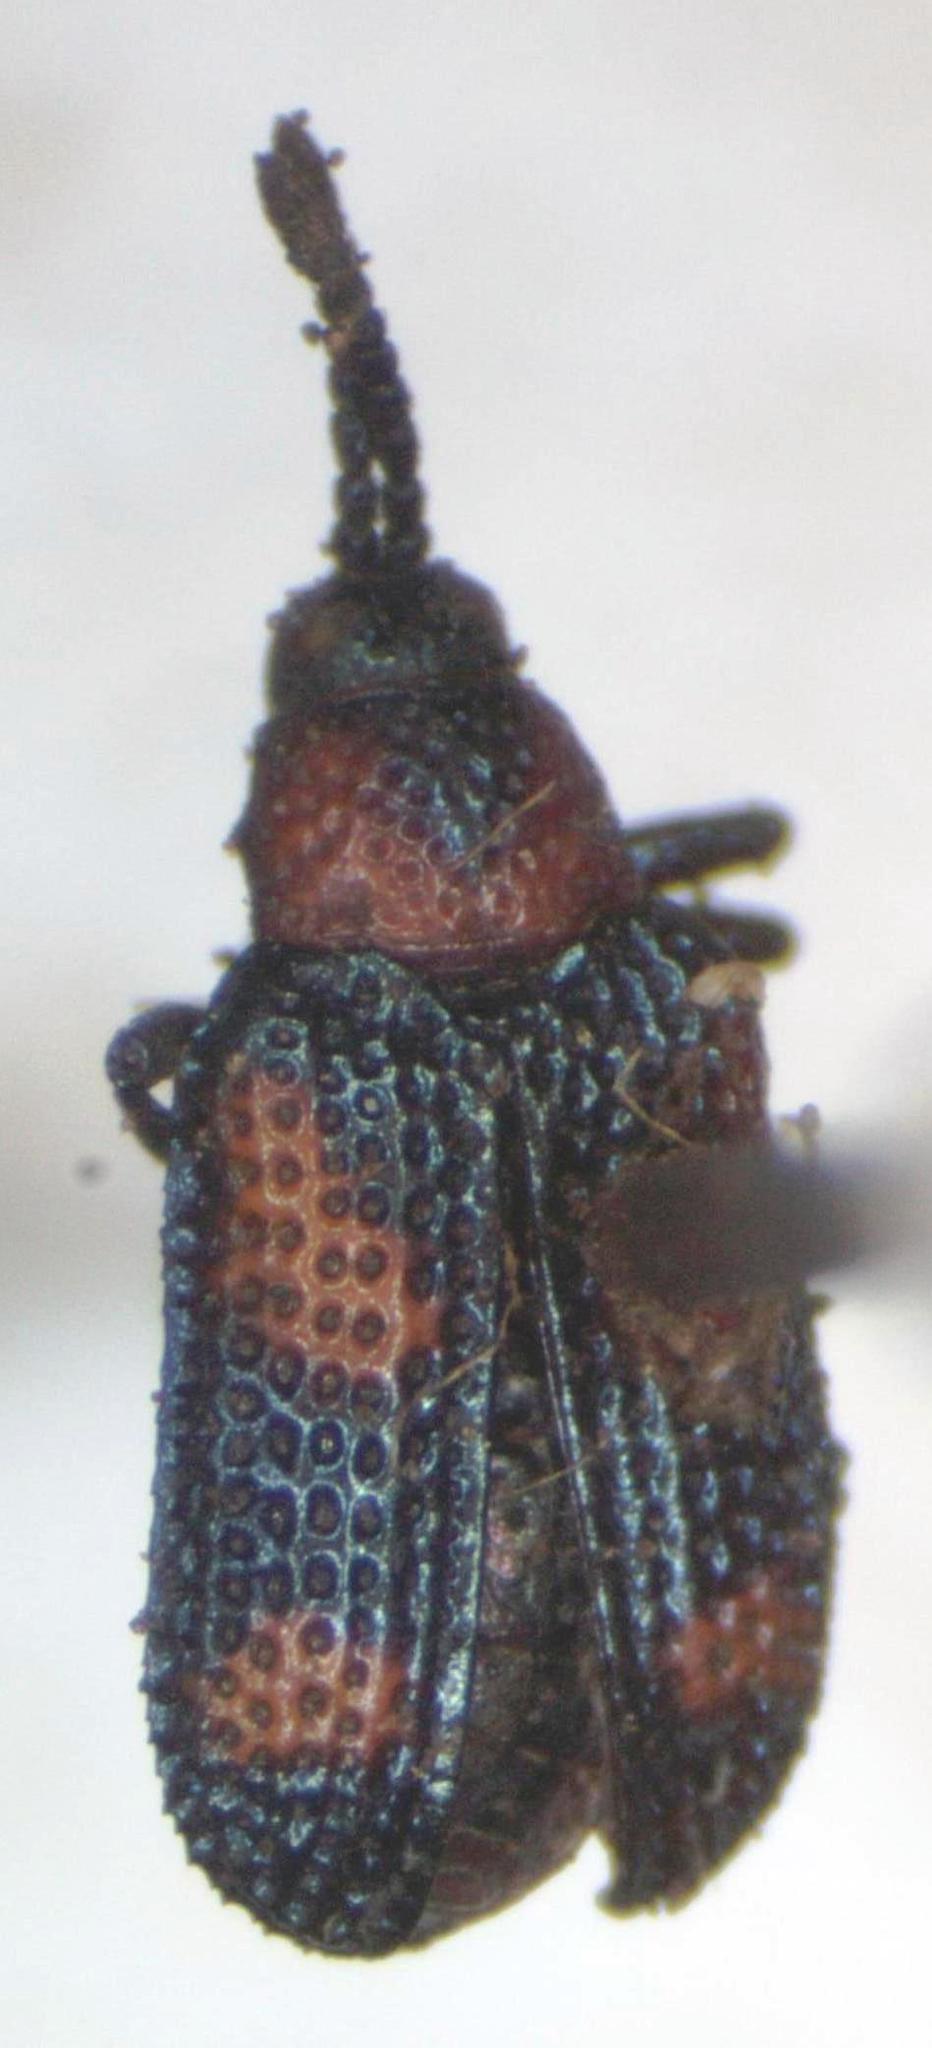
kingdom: Animalia
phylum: Arthropoda
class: Insecta
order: Coleoptera
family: Chrysomelidae
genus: Microrhopala
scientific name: Microrhopala perforata
